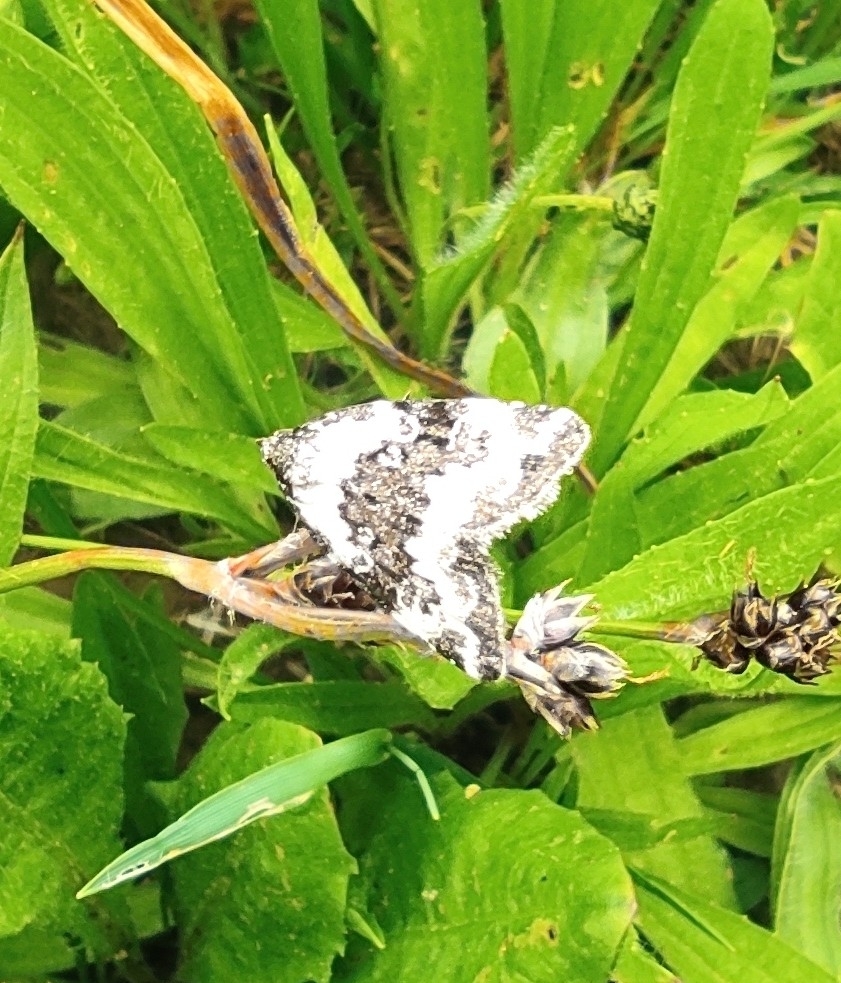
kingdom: Animalia
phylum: Arthropoda
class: Insecta
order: Lepidoptera
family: Noctuidae
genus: Deltote
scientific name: Deltote deceptoria
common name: Pretty marbled
